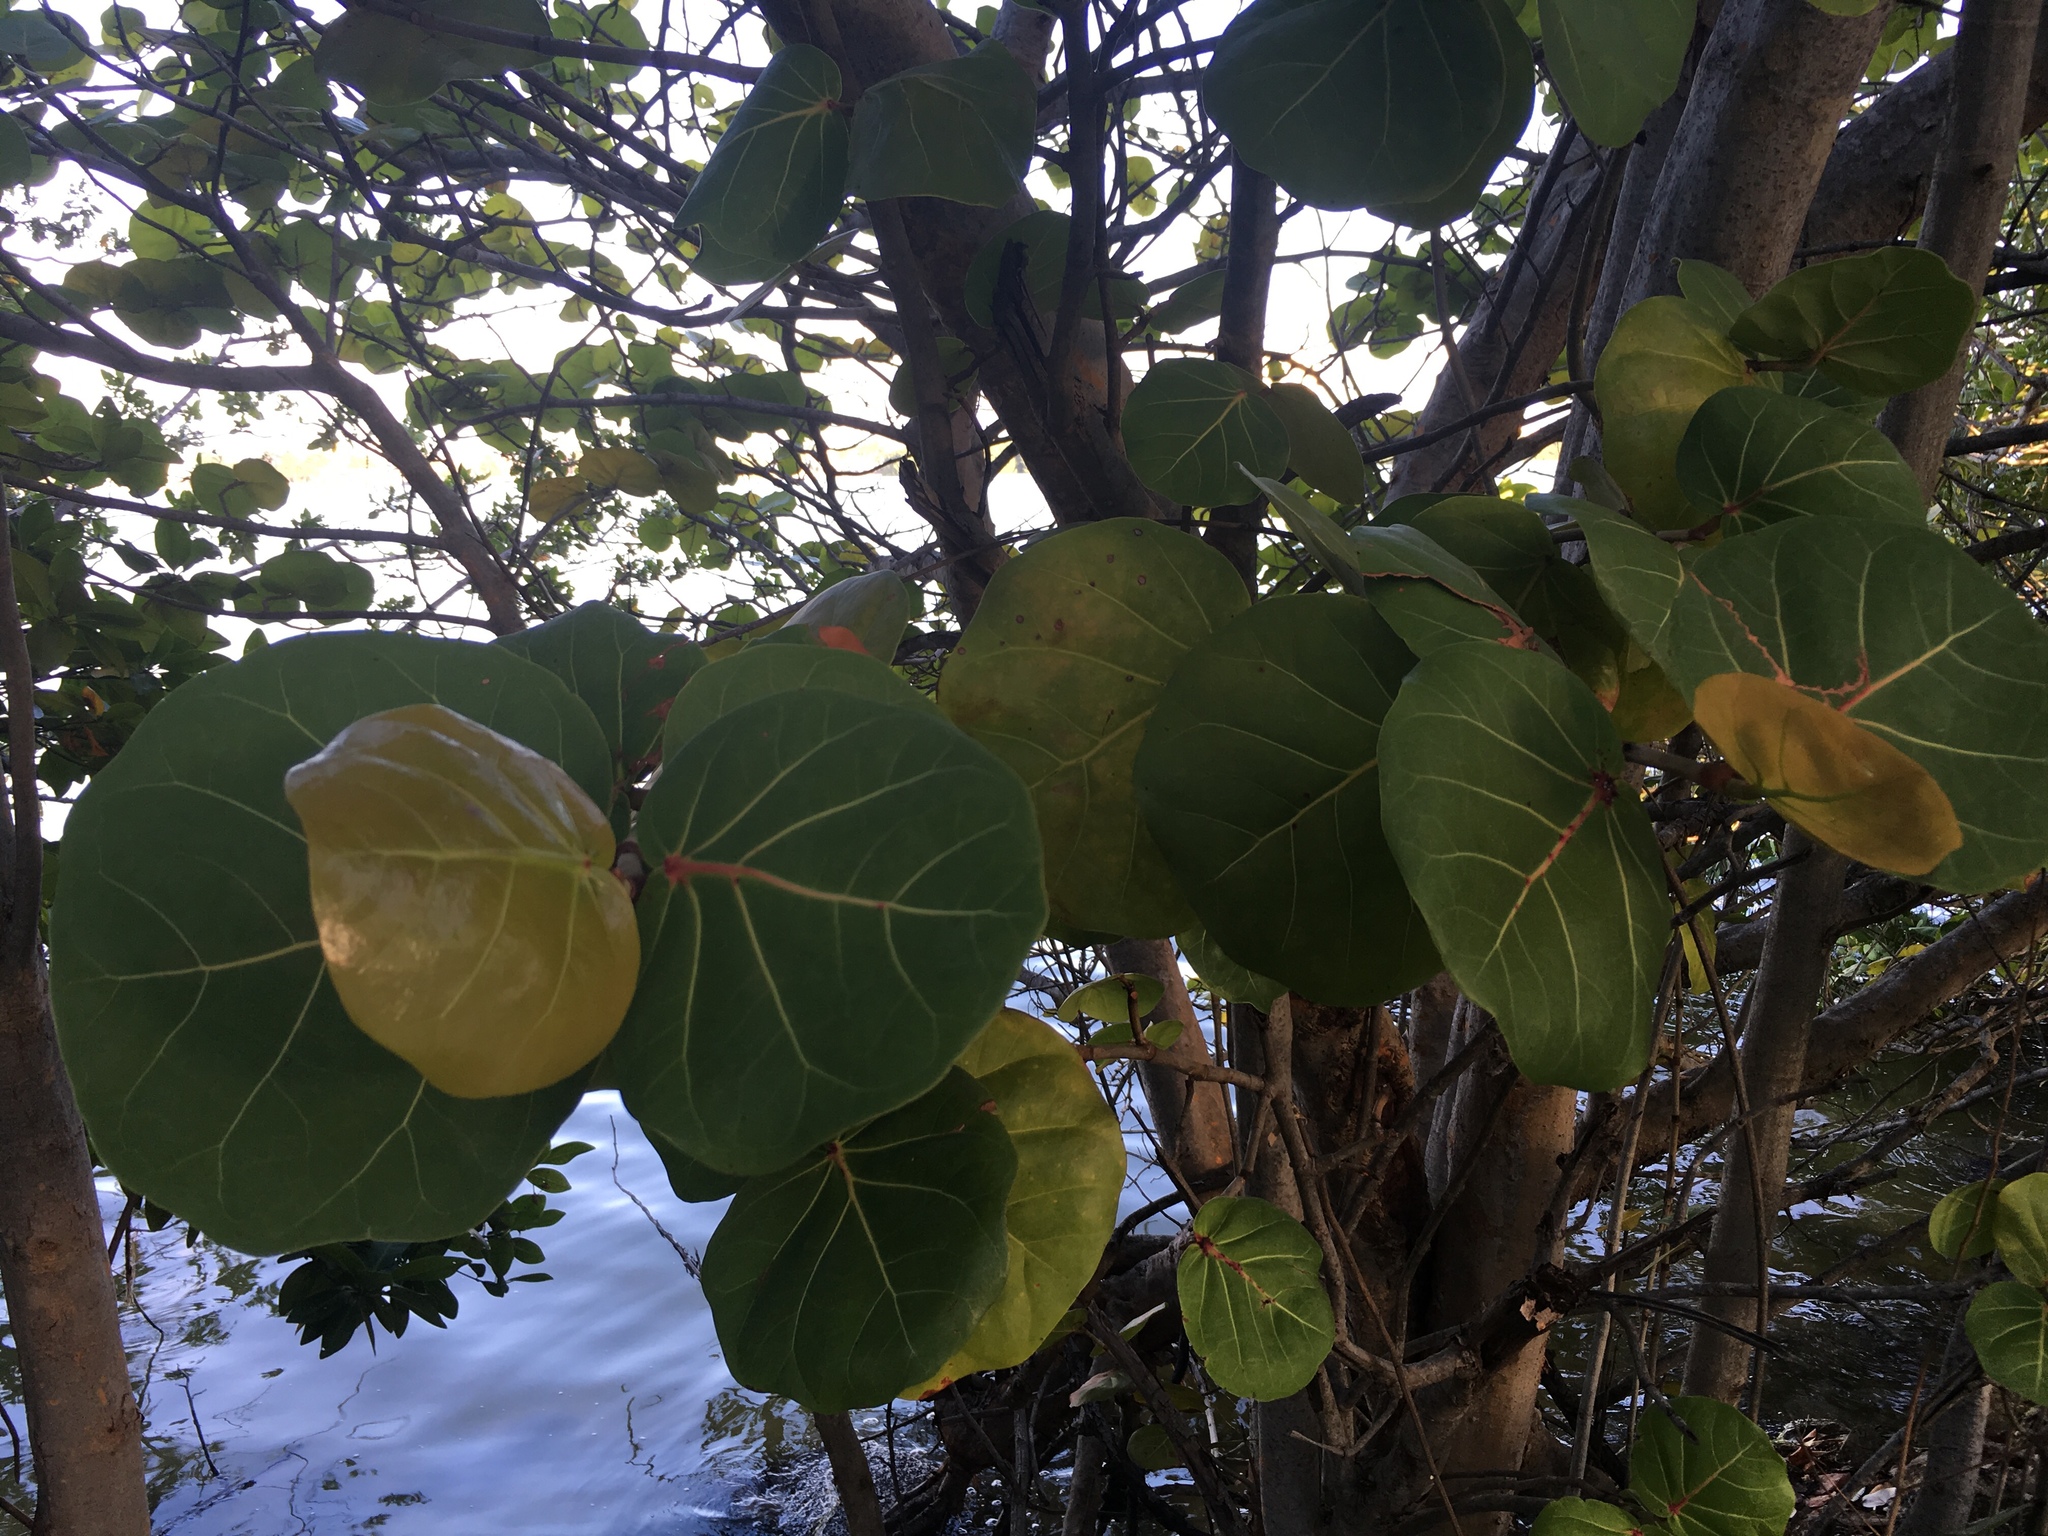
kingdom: Plantae
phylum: Tracheophyta
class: Magnoliopsida
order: Caryophyllales
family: Polygonaceae
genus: Coccoloba
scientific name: Coccoloba uvifera
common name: Seagrape
